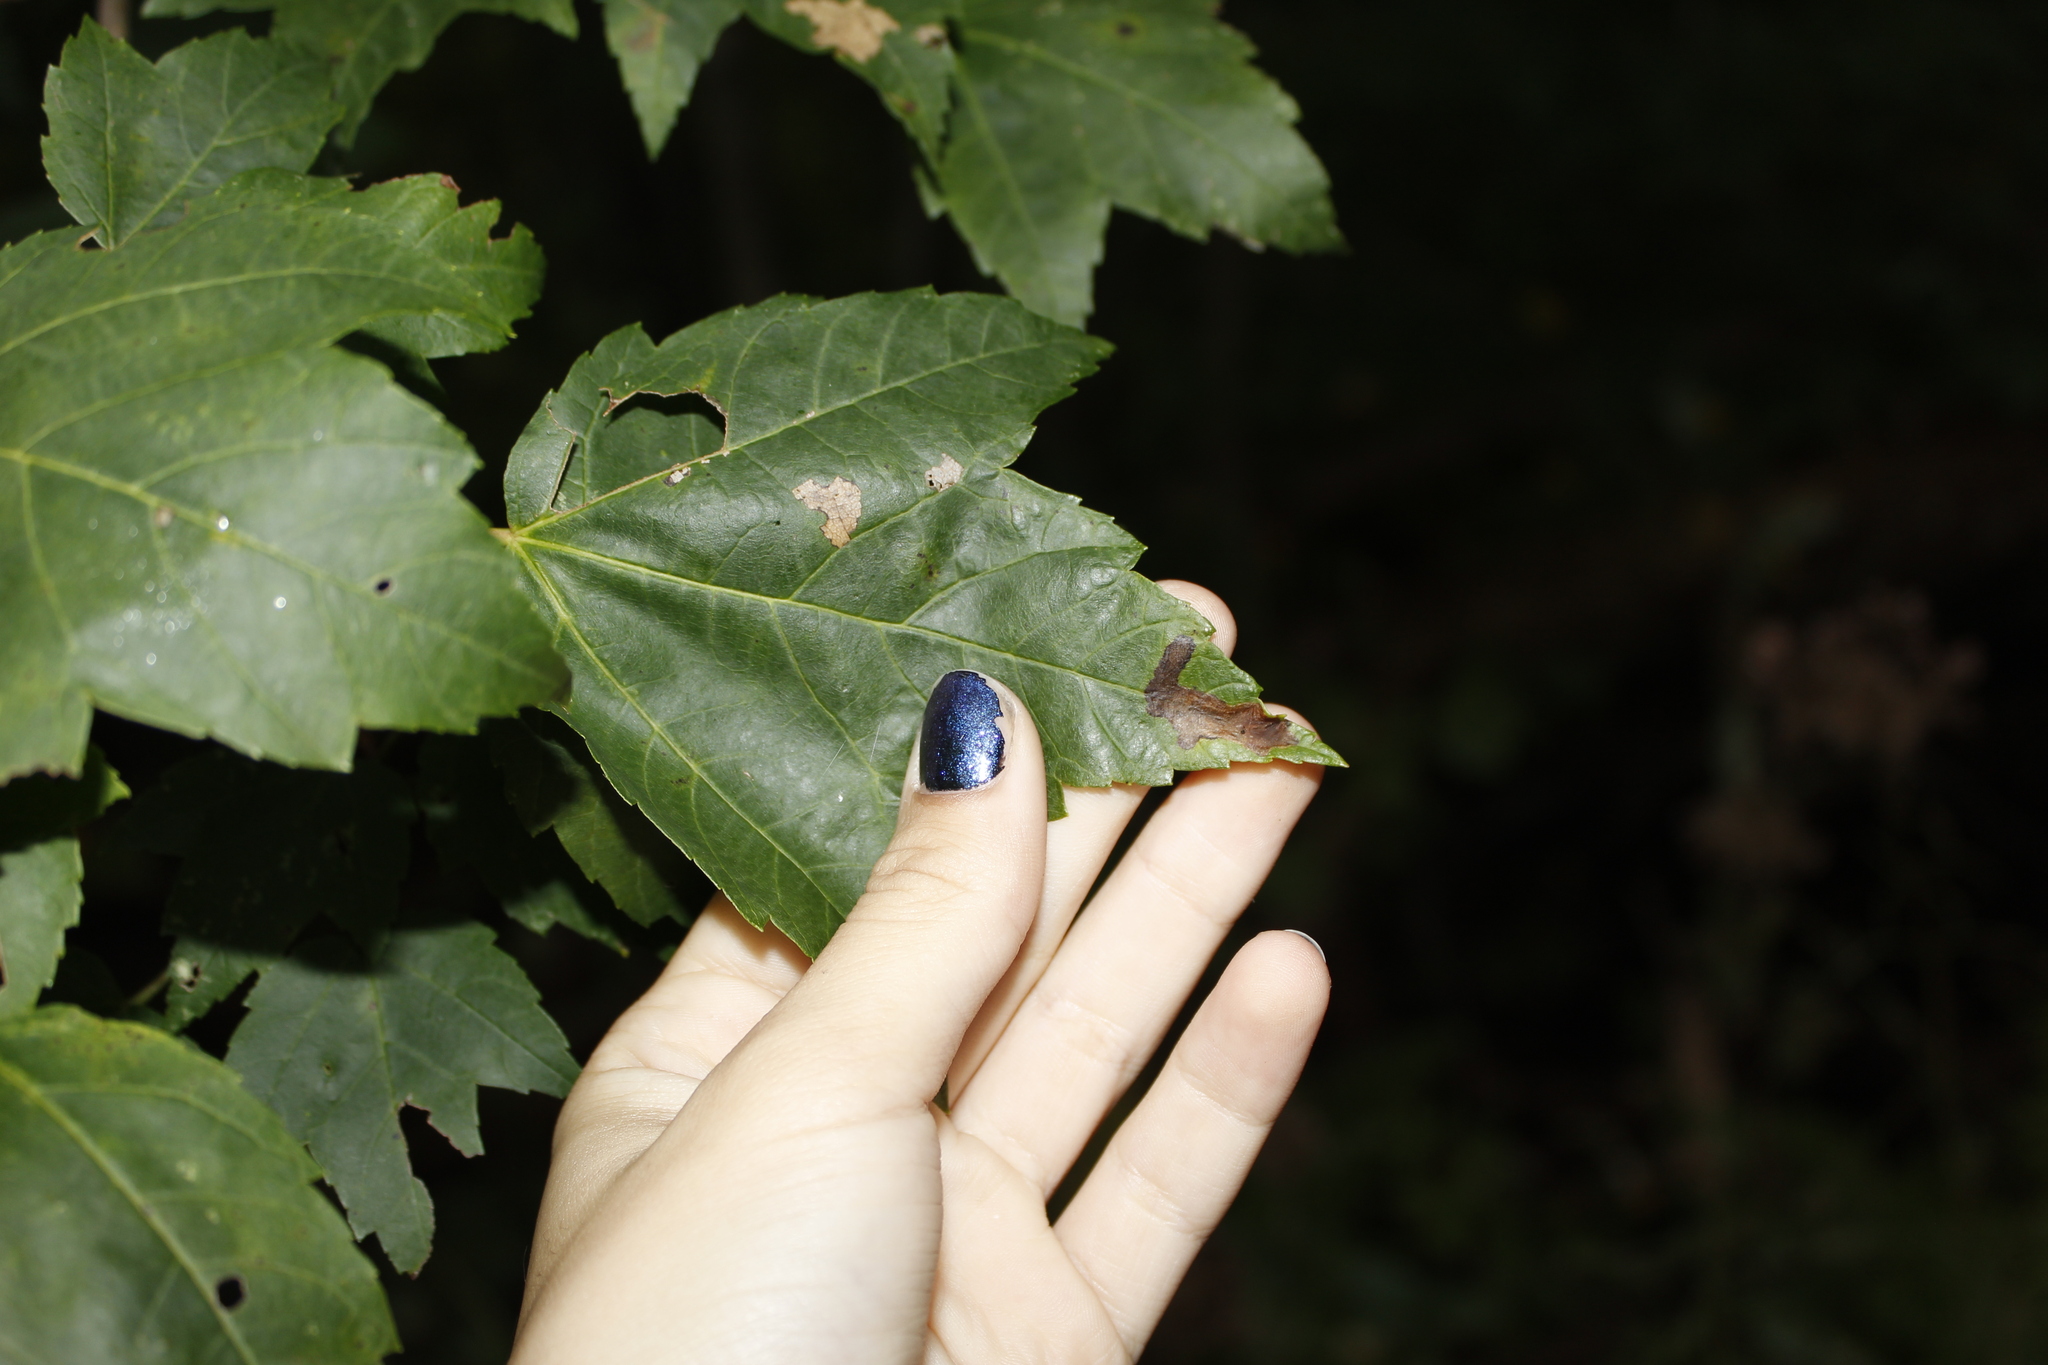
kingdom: Plantae
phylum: Tracheophyta
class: Magnoliopsida
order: Sapindales
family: Sapindaceae
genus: Acer
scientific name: Acer rubrum
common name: Red maple
